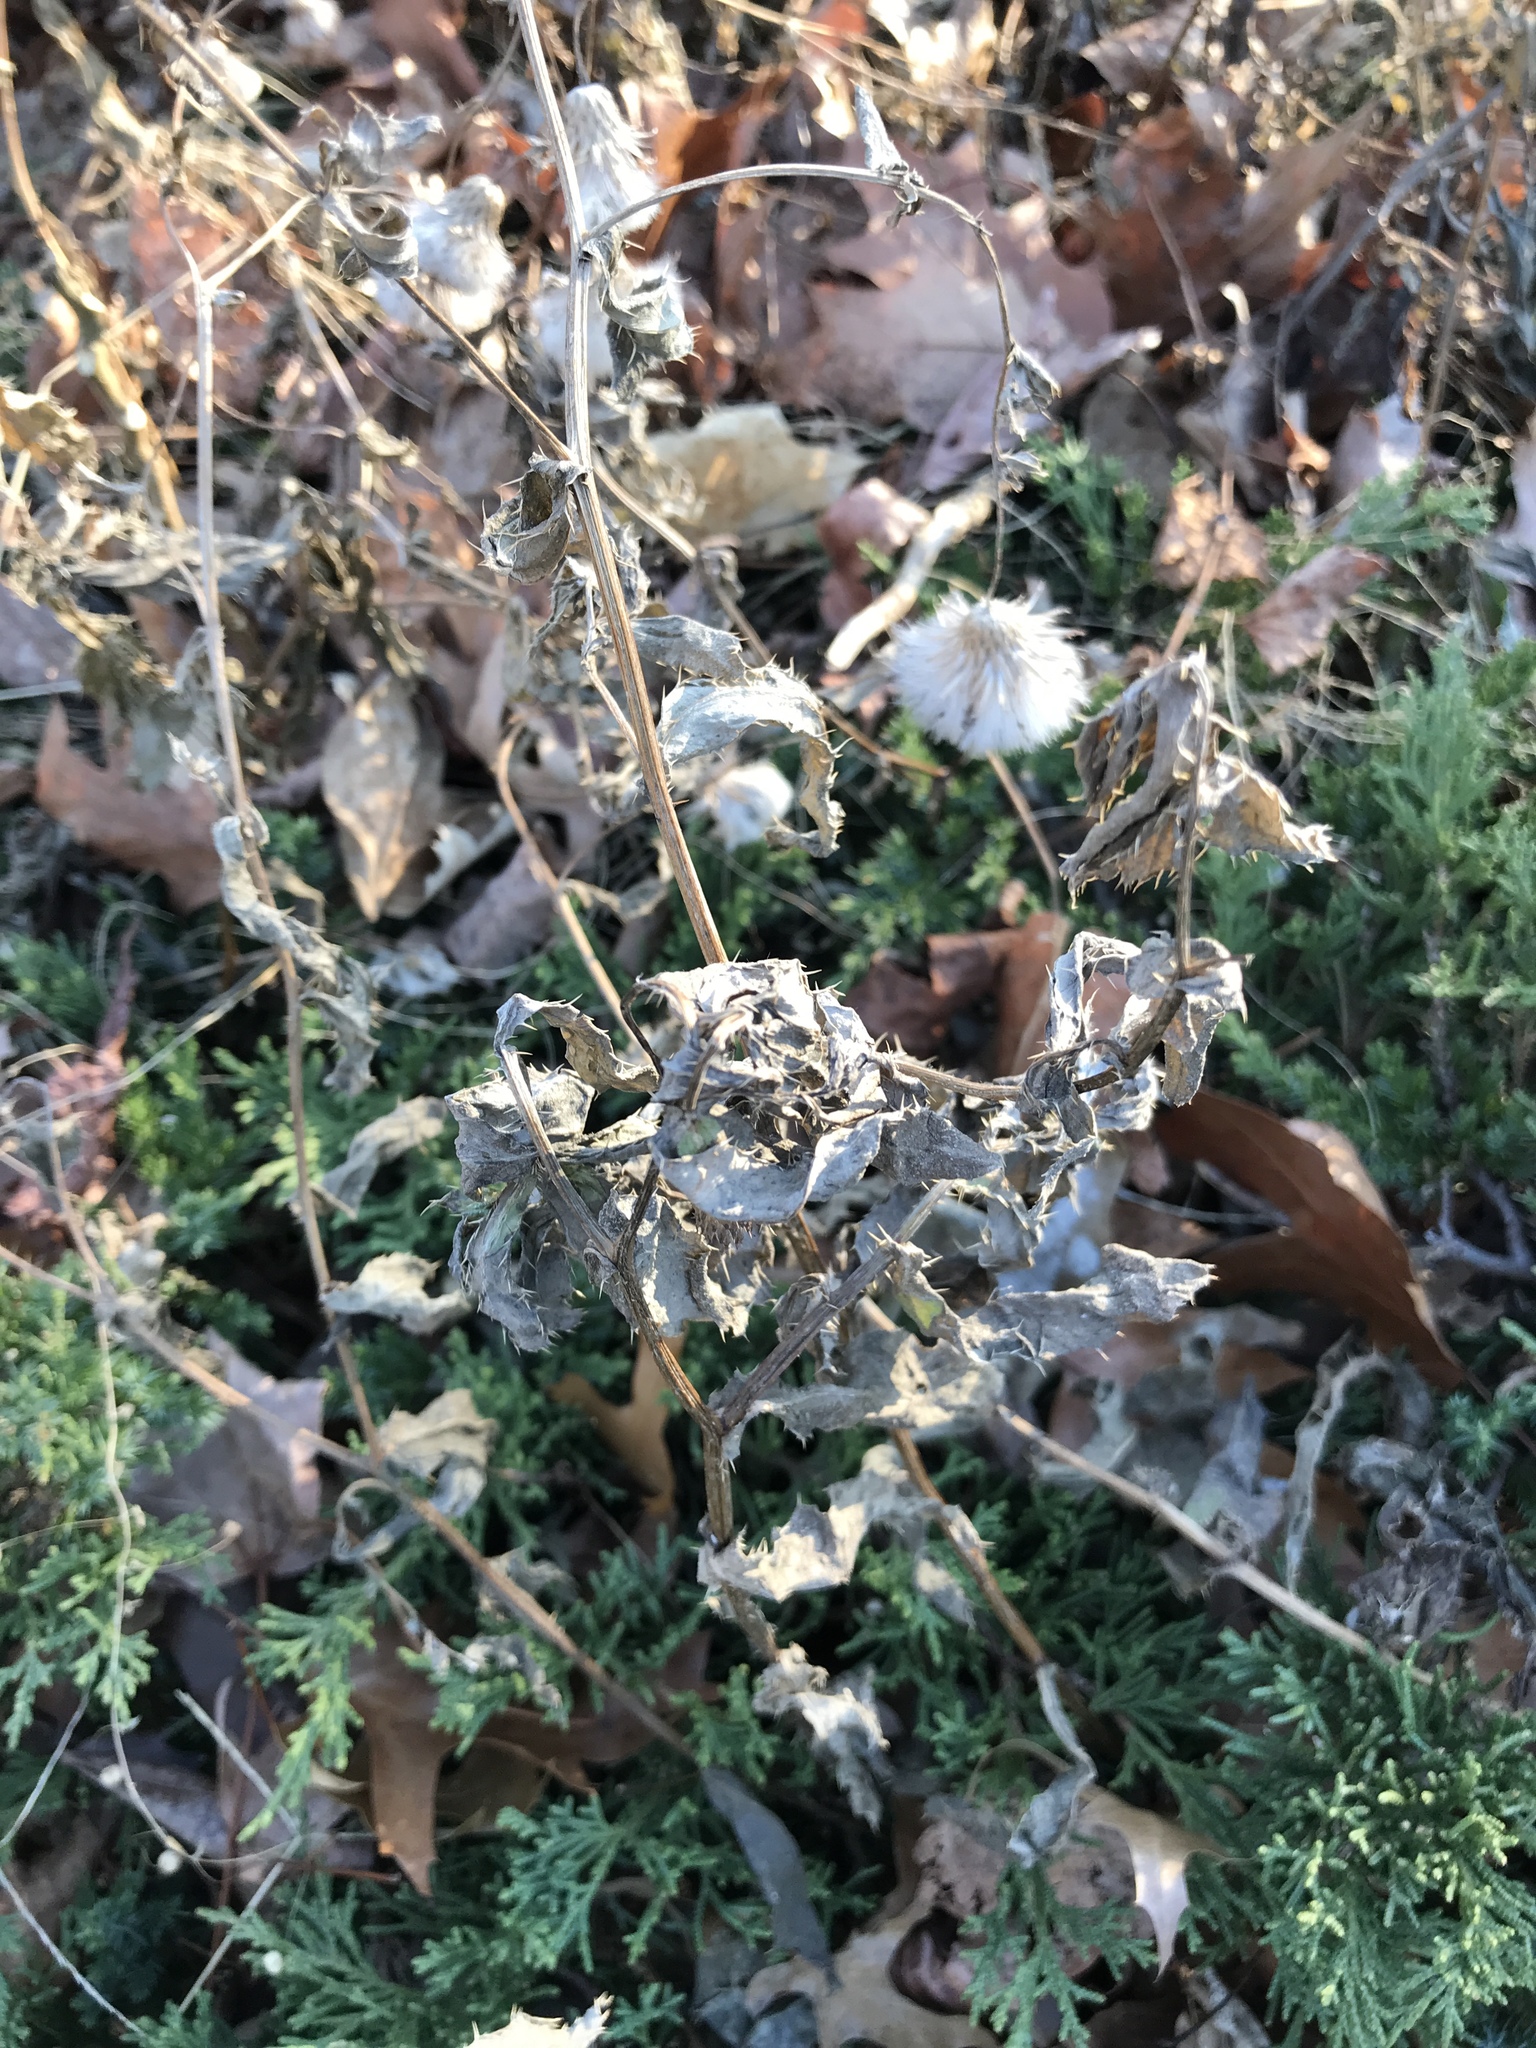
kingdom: Plantae
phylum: Tracheophyta
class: Magnoliopsida
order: Asterales
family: Asteraceae
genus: Cirsium
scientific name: Cirsium arvense
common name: Creeping thistle
